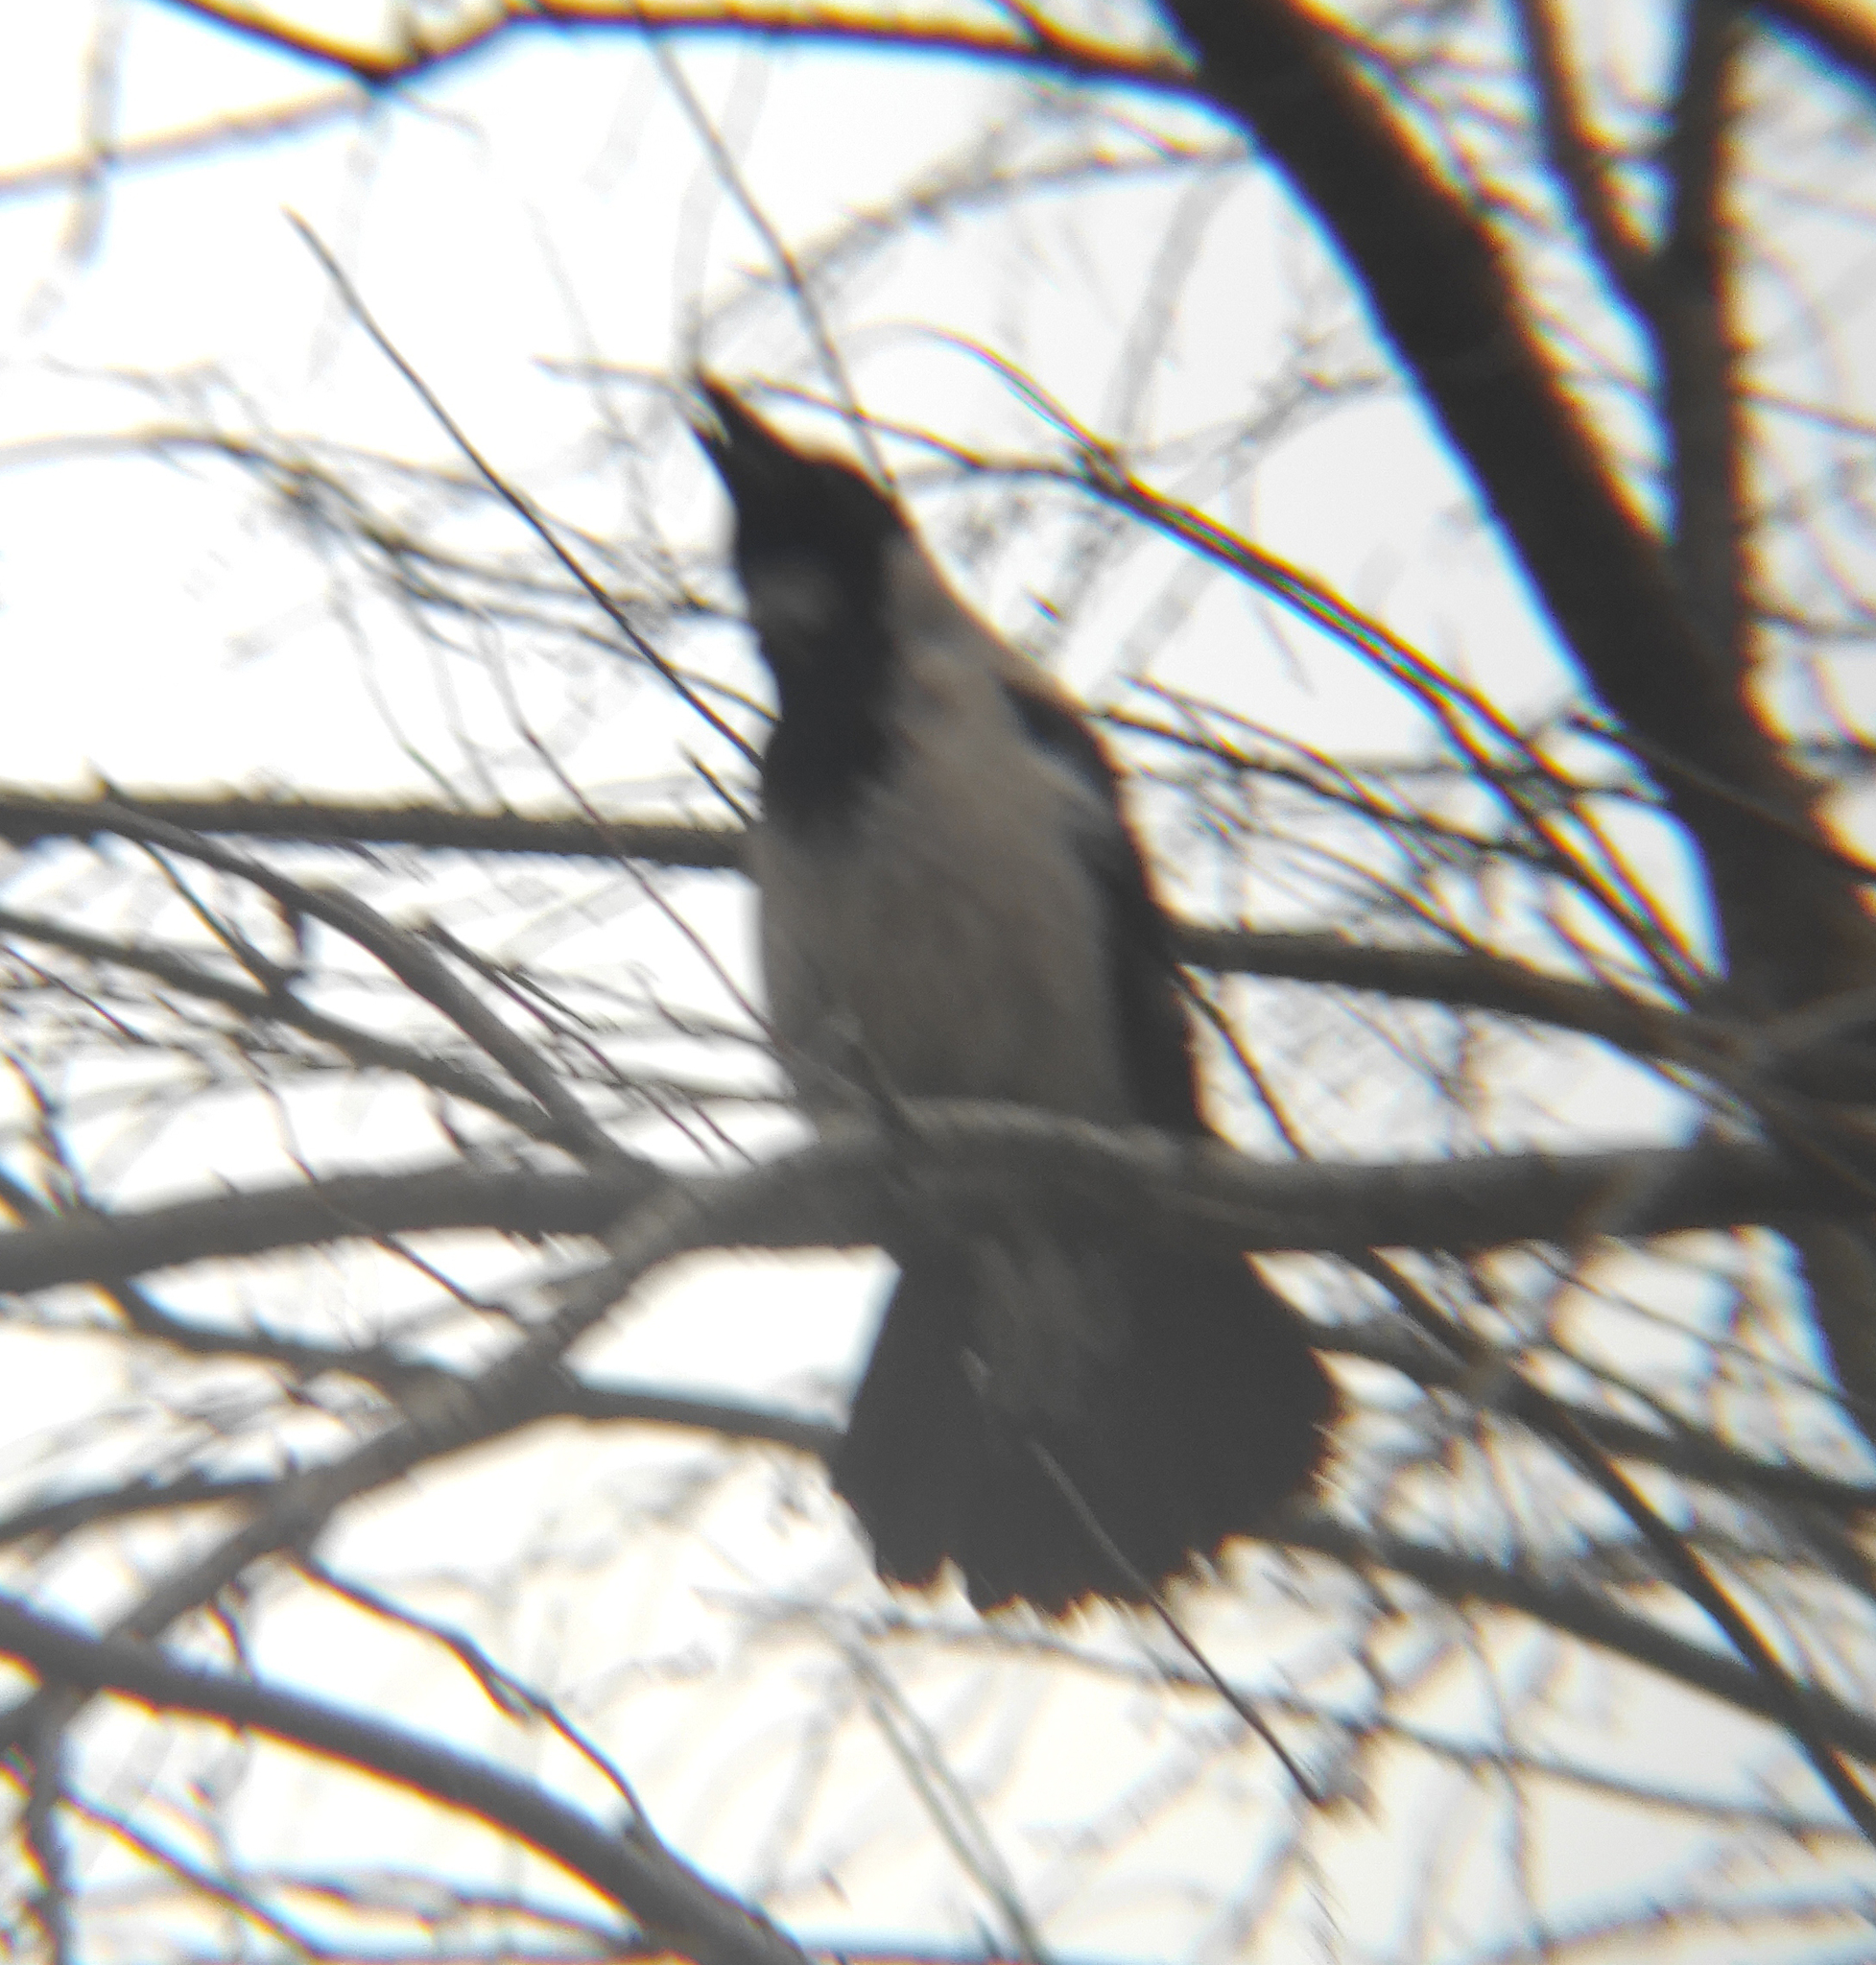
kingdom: Animalia
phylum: Chordata
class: Aves
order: Passeriformes
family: Corvidae
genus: Corvus
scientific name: Corvus cornix
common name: Hooded crow
